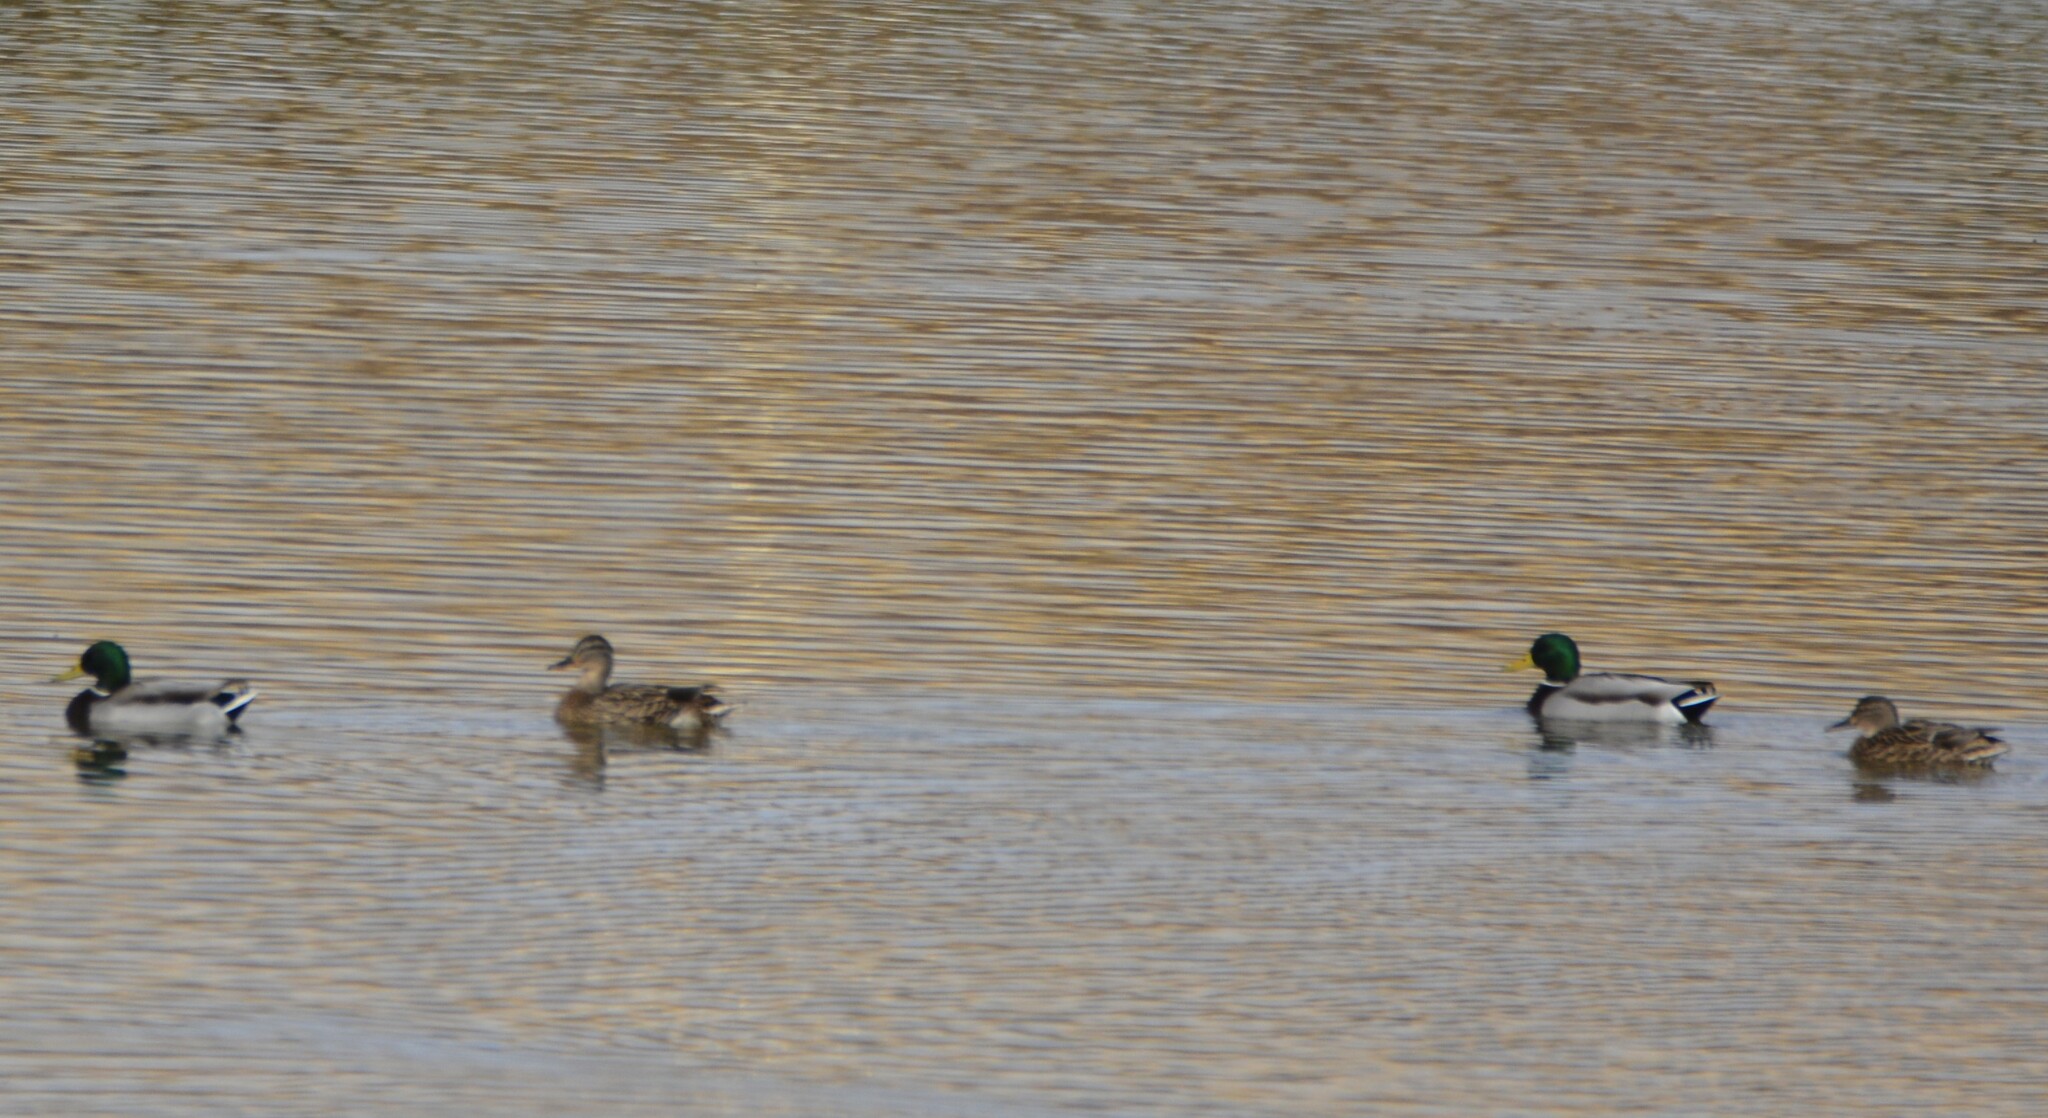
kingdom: Animalia
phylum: Chordata
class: Aves
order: Anseriformes
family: Anatidae
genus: Anas
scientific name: Anas platyrhynchos
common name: Mallard
